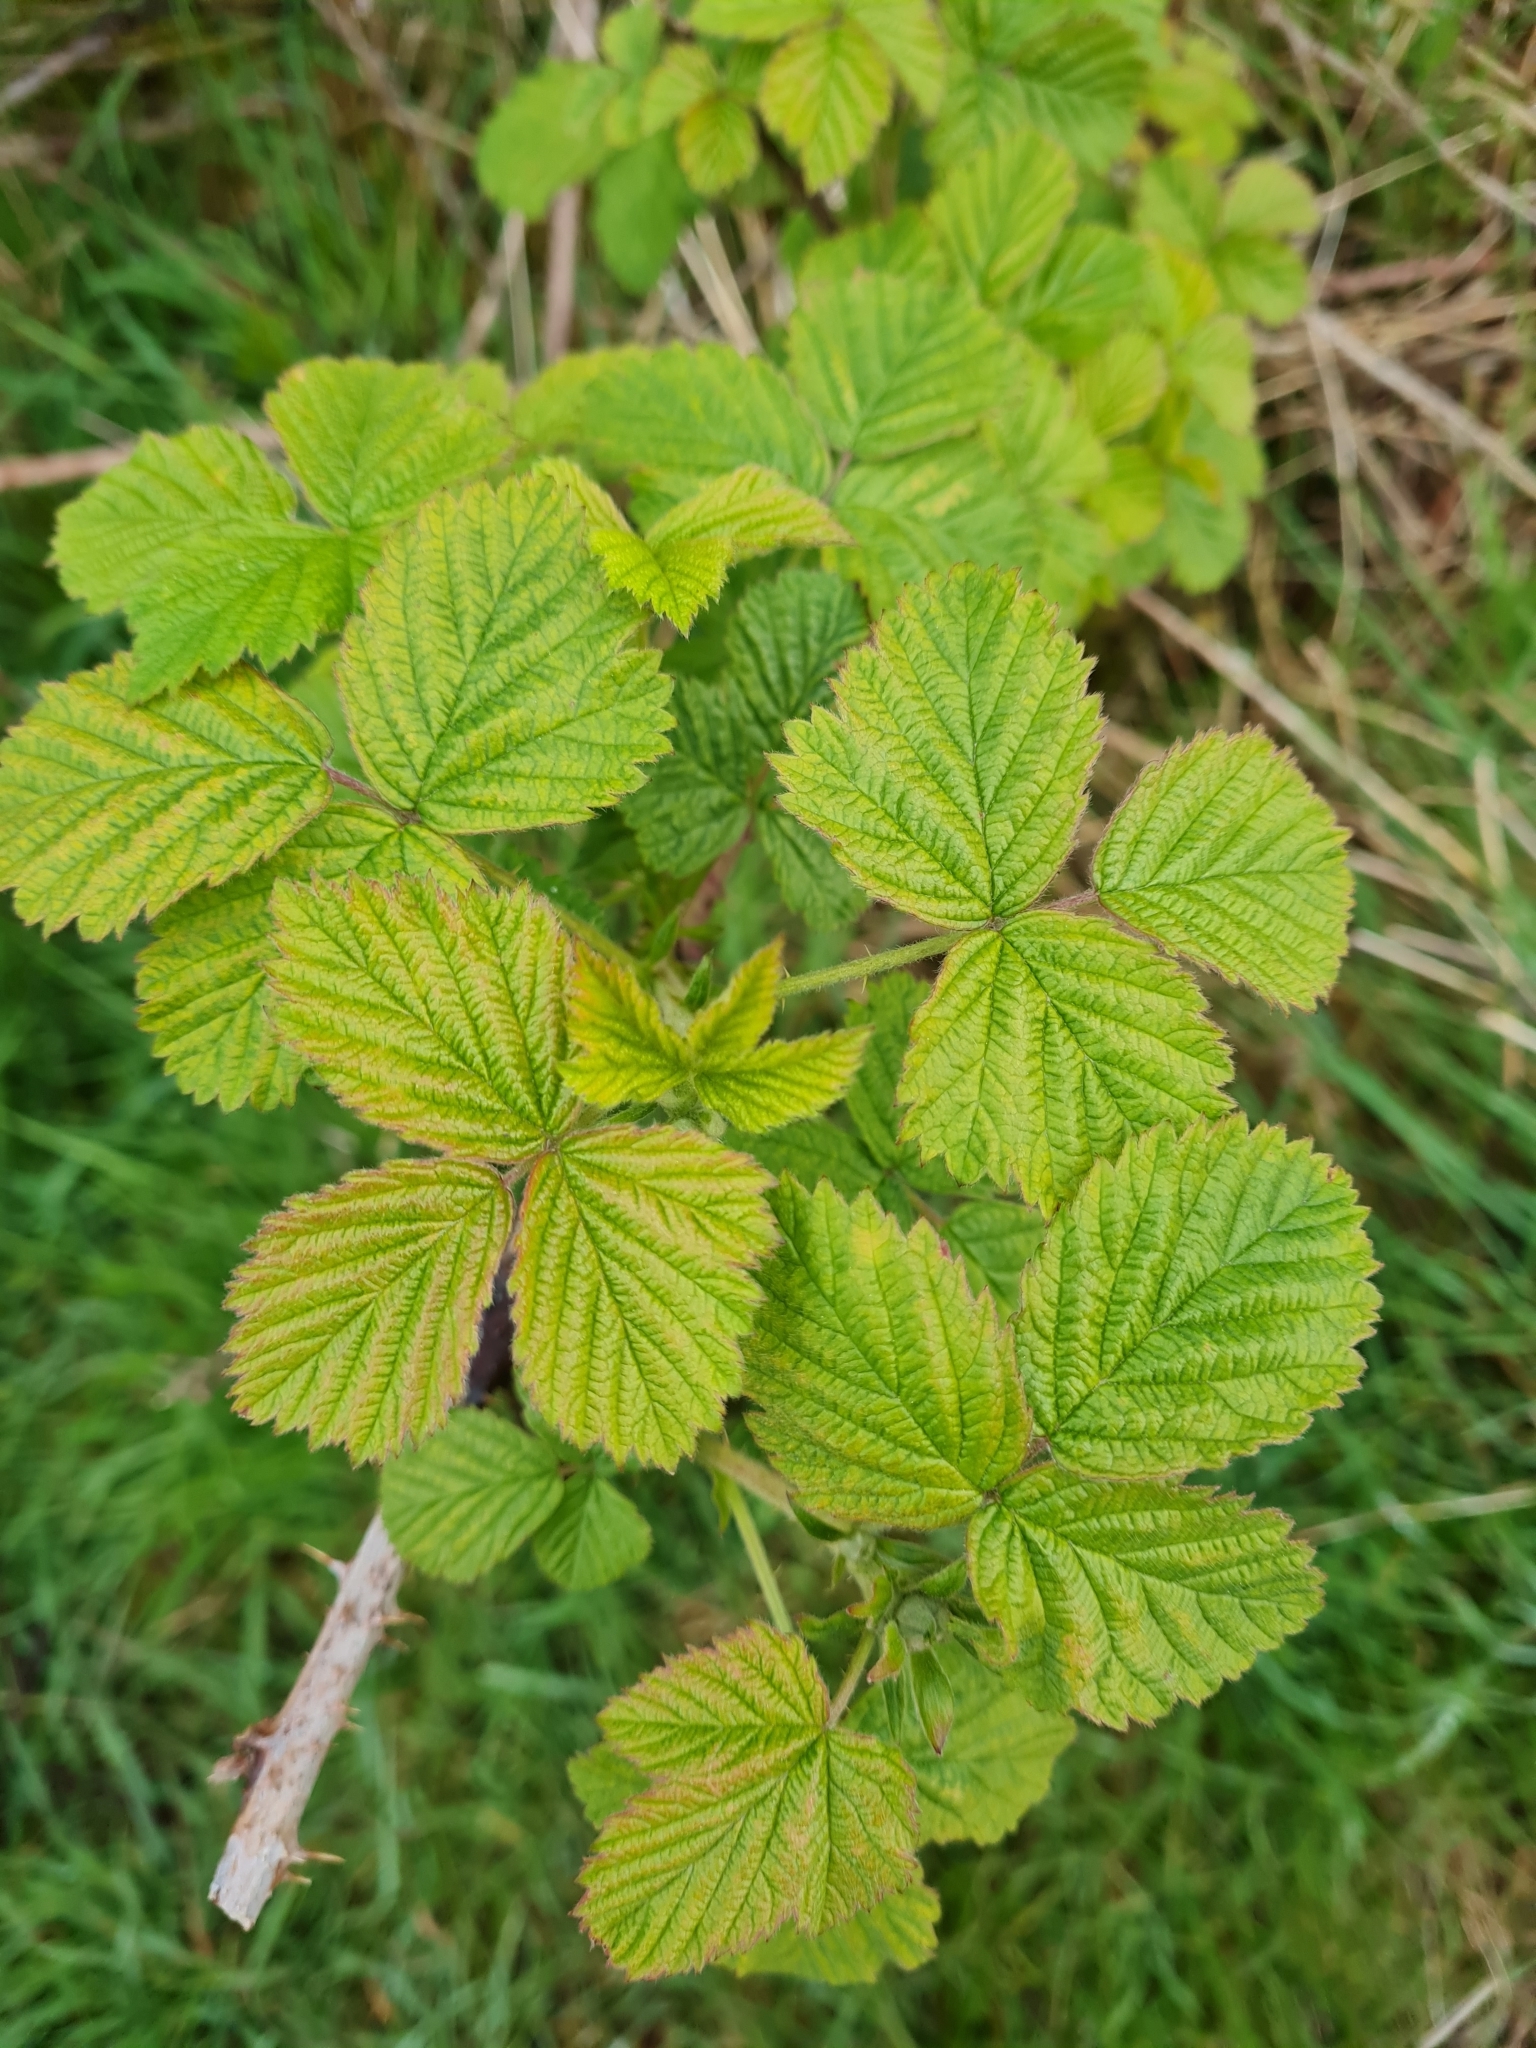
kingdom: Plantae
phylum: Tracheophyta
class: Magnoliopsida
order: Rosales
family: Rosaceae
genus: Rubus
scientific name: Rubus
